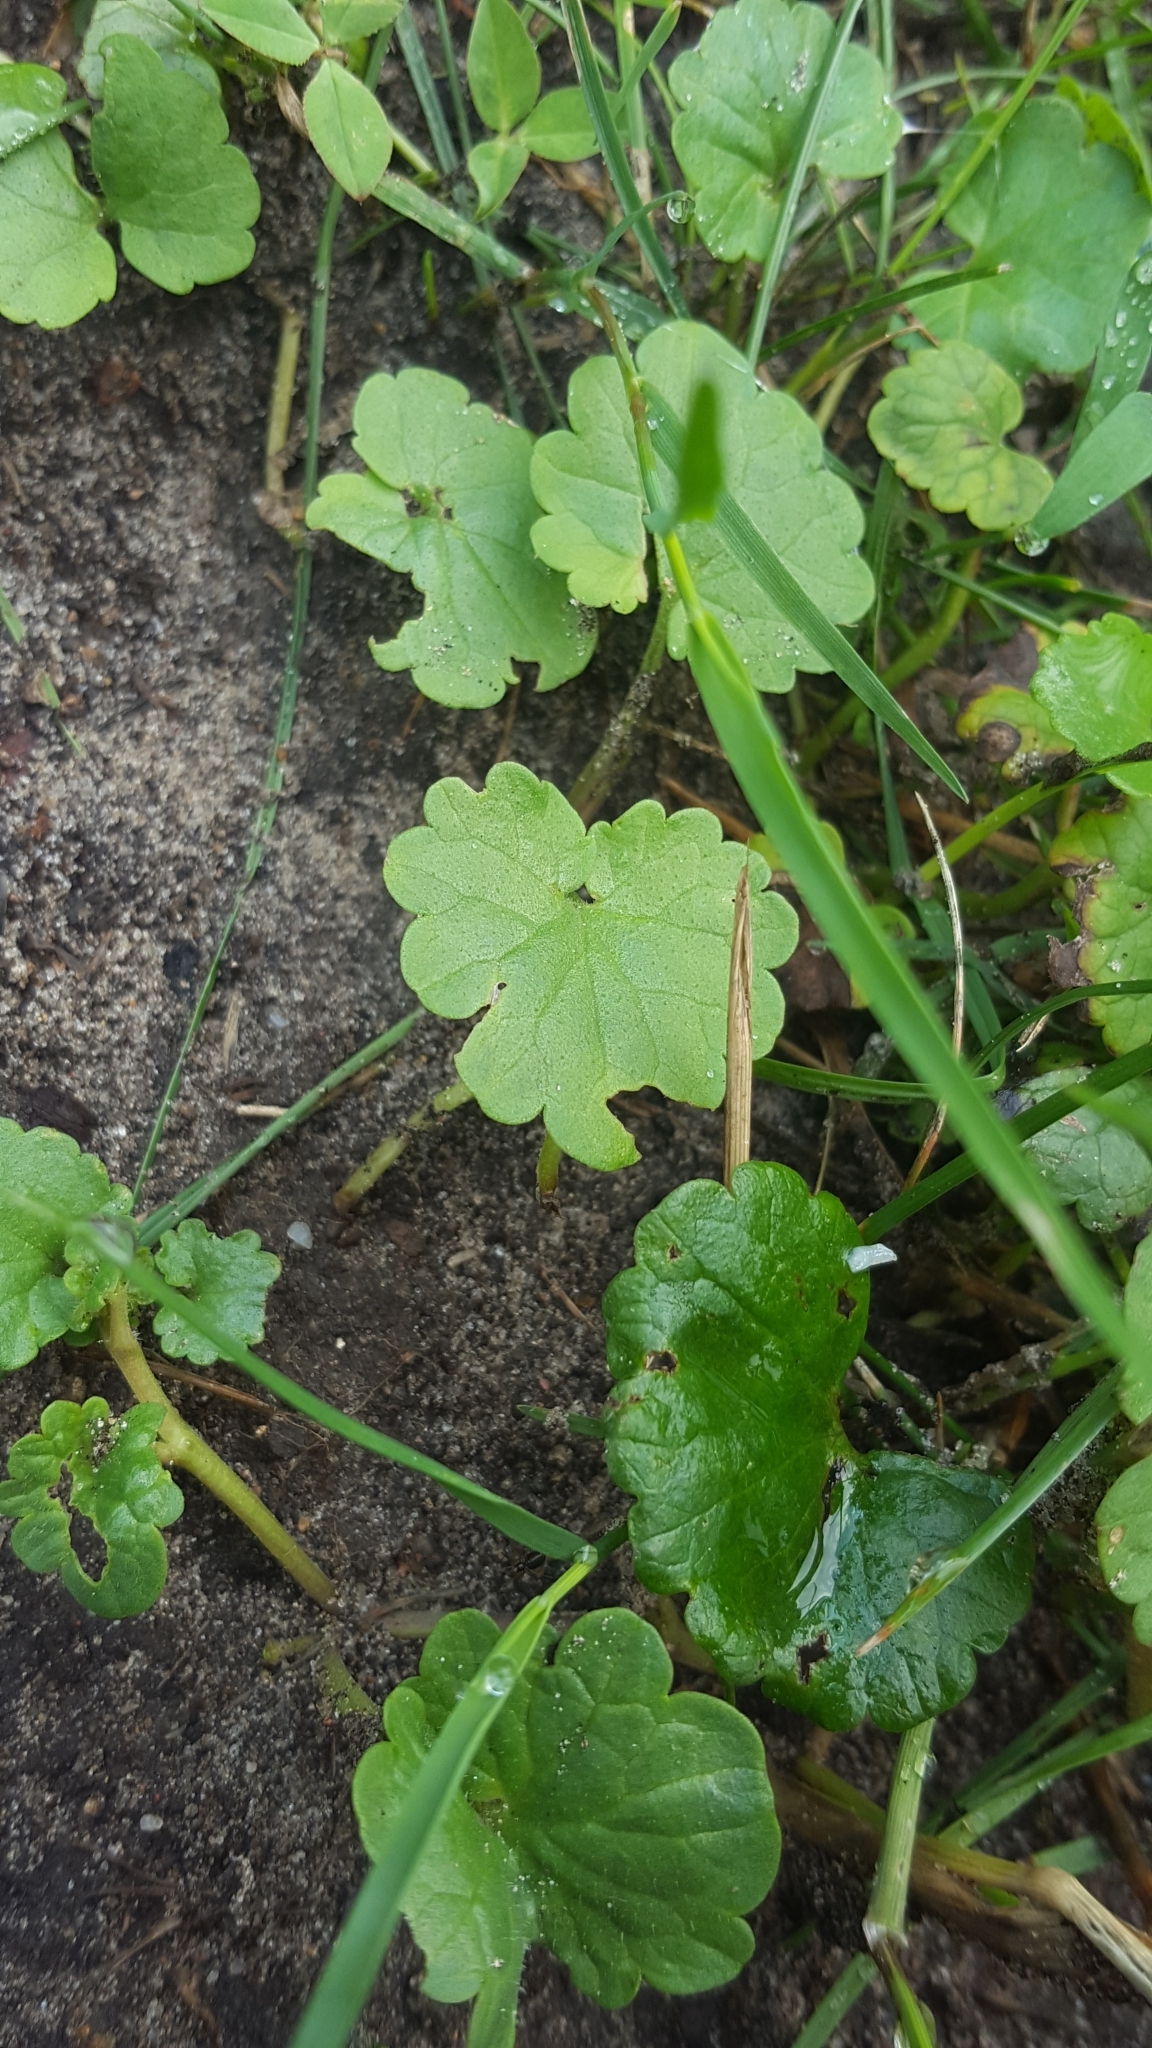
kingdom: Plantae
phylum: Tracheophyta
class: Magnoliopsida
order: Lamiales
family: Lamiaceae
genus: Glechoma
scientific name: Glechoma hederacea
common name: Ground ivy
